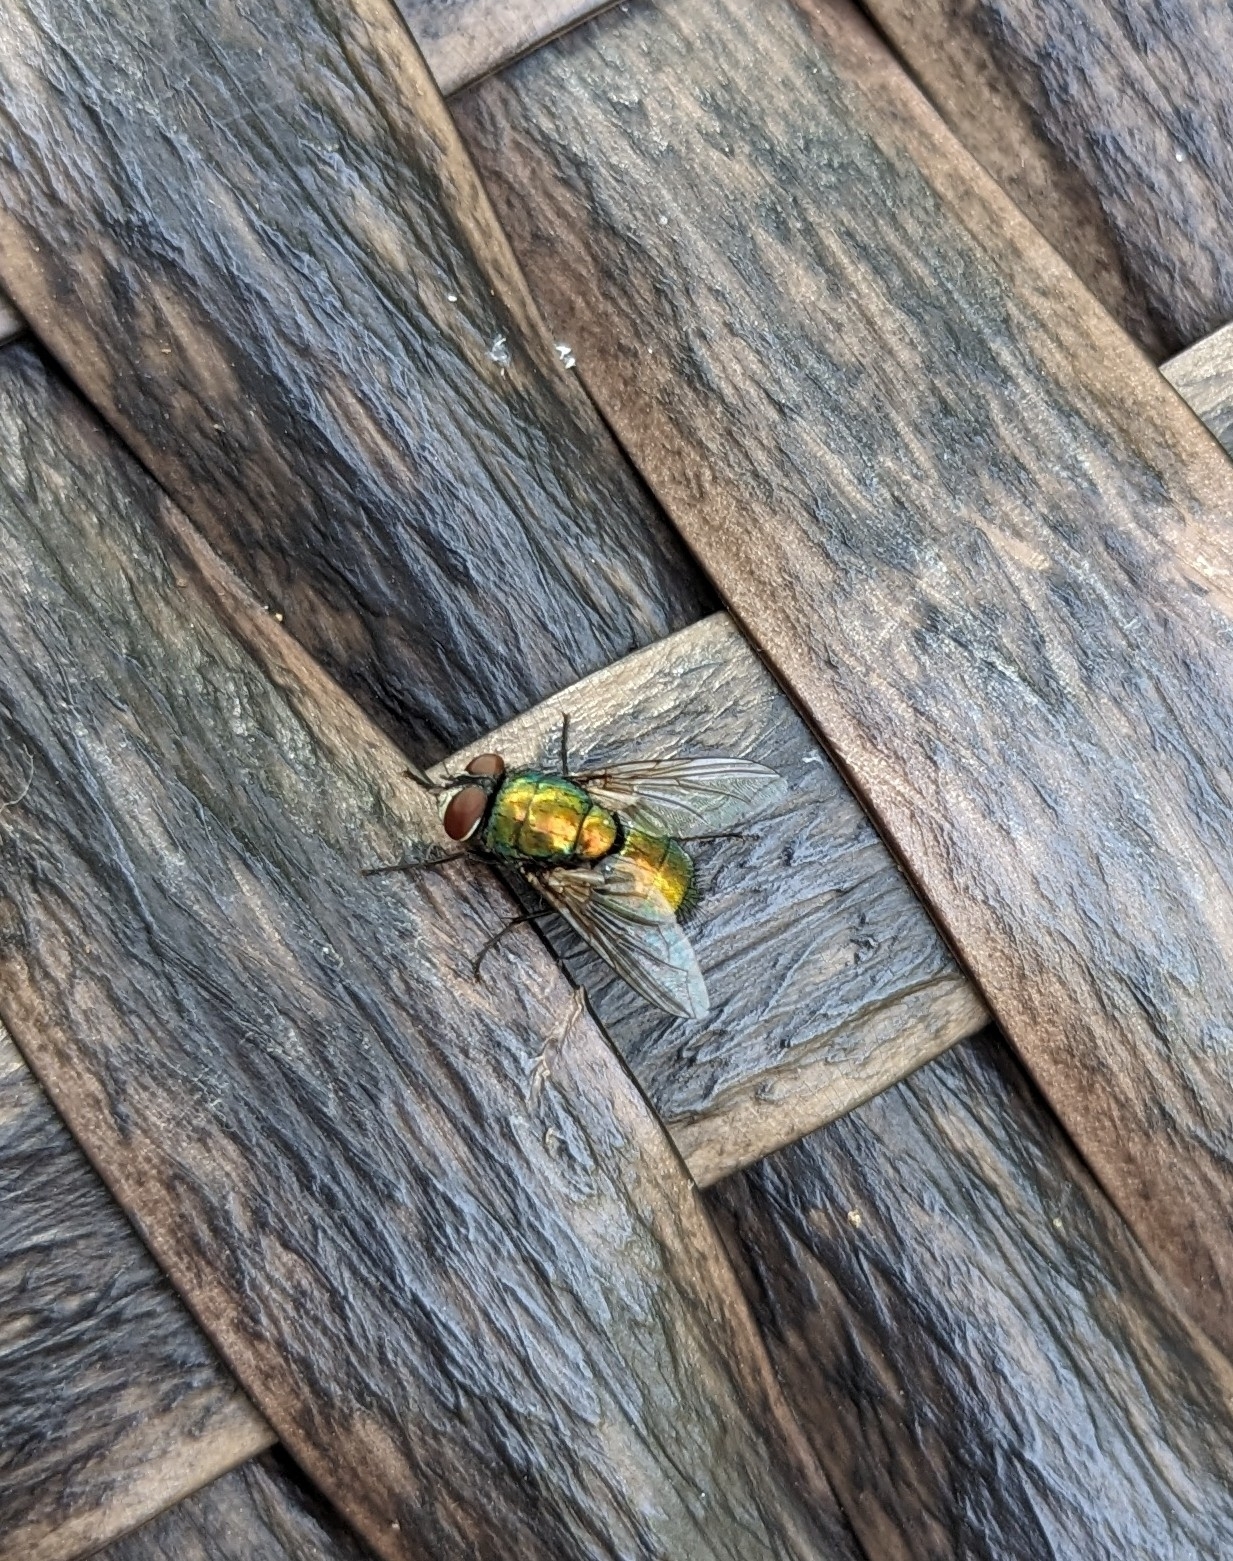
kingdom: Animalia
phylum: Arthropoda
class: Insecta
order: Diptera
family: Calliphoridae
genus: Lucilia
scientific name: Lucilia sericata
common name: Blow fly
